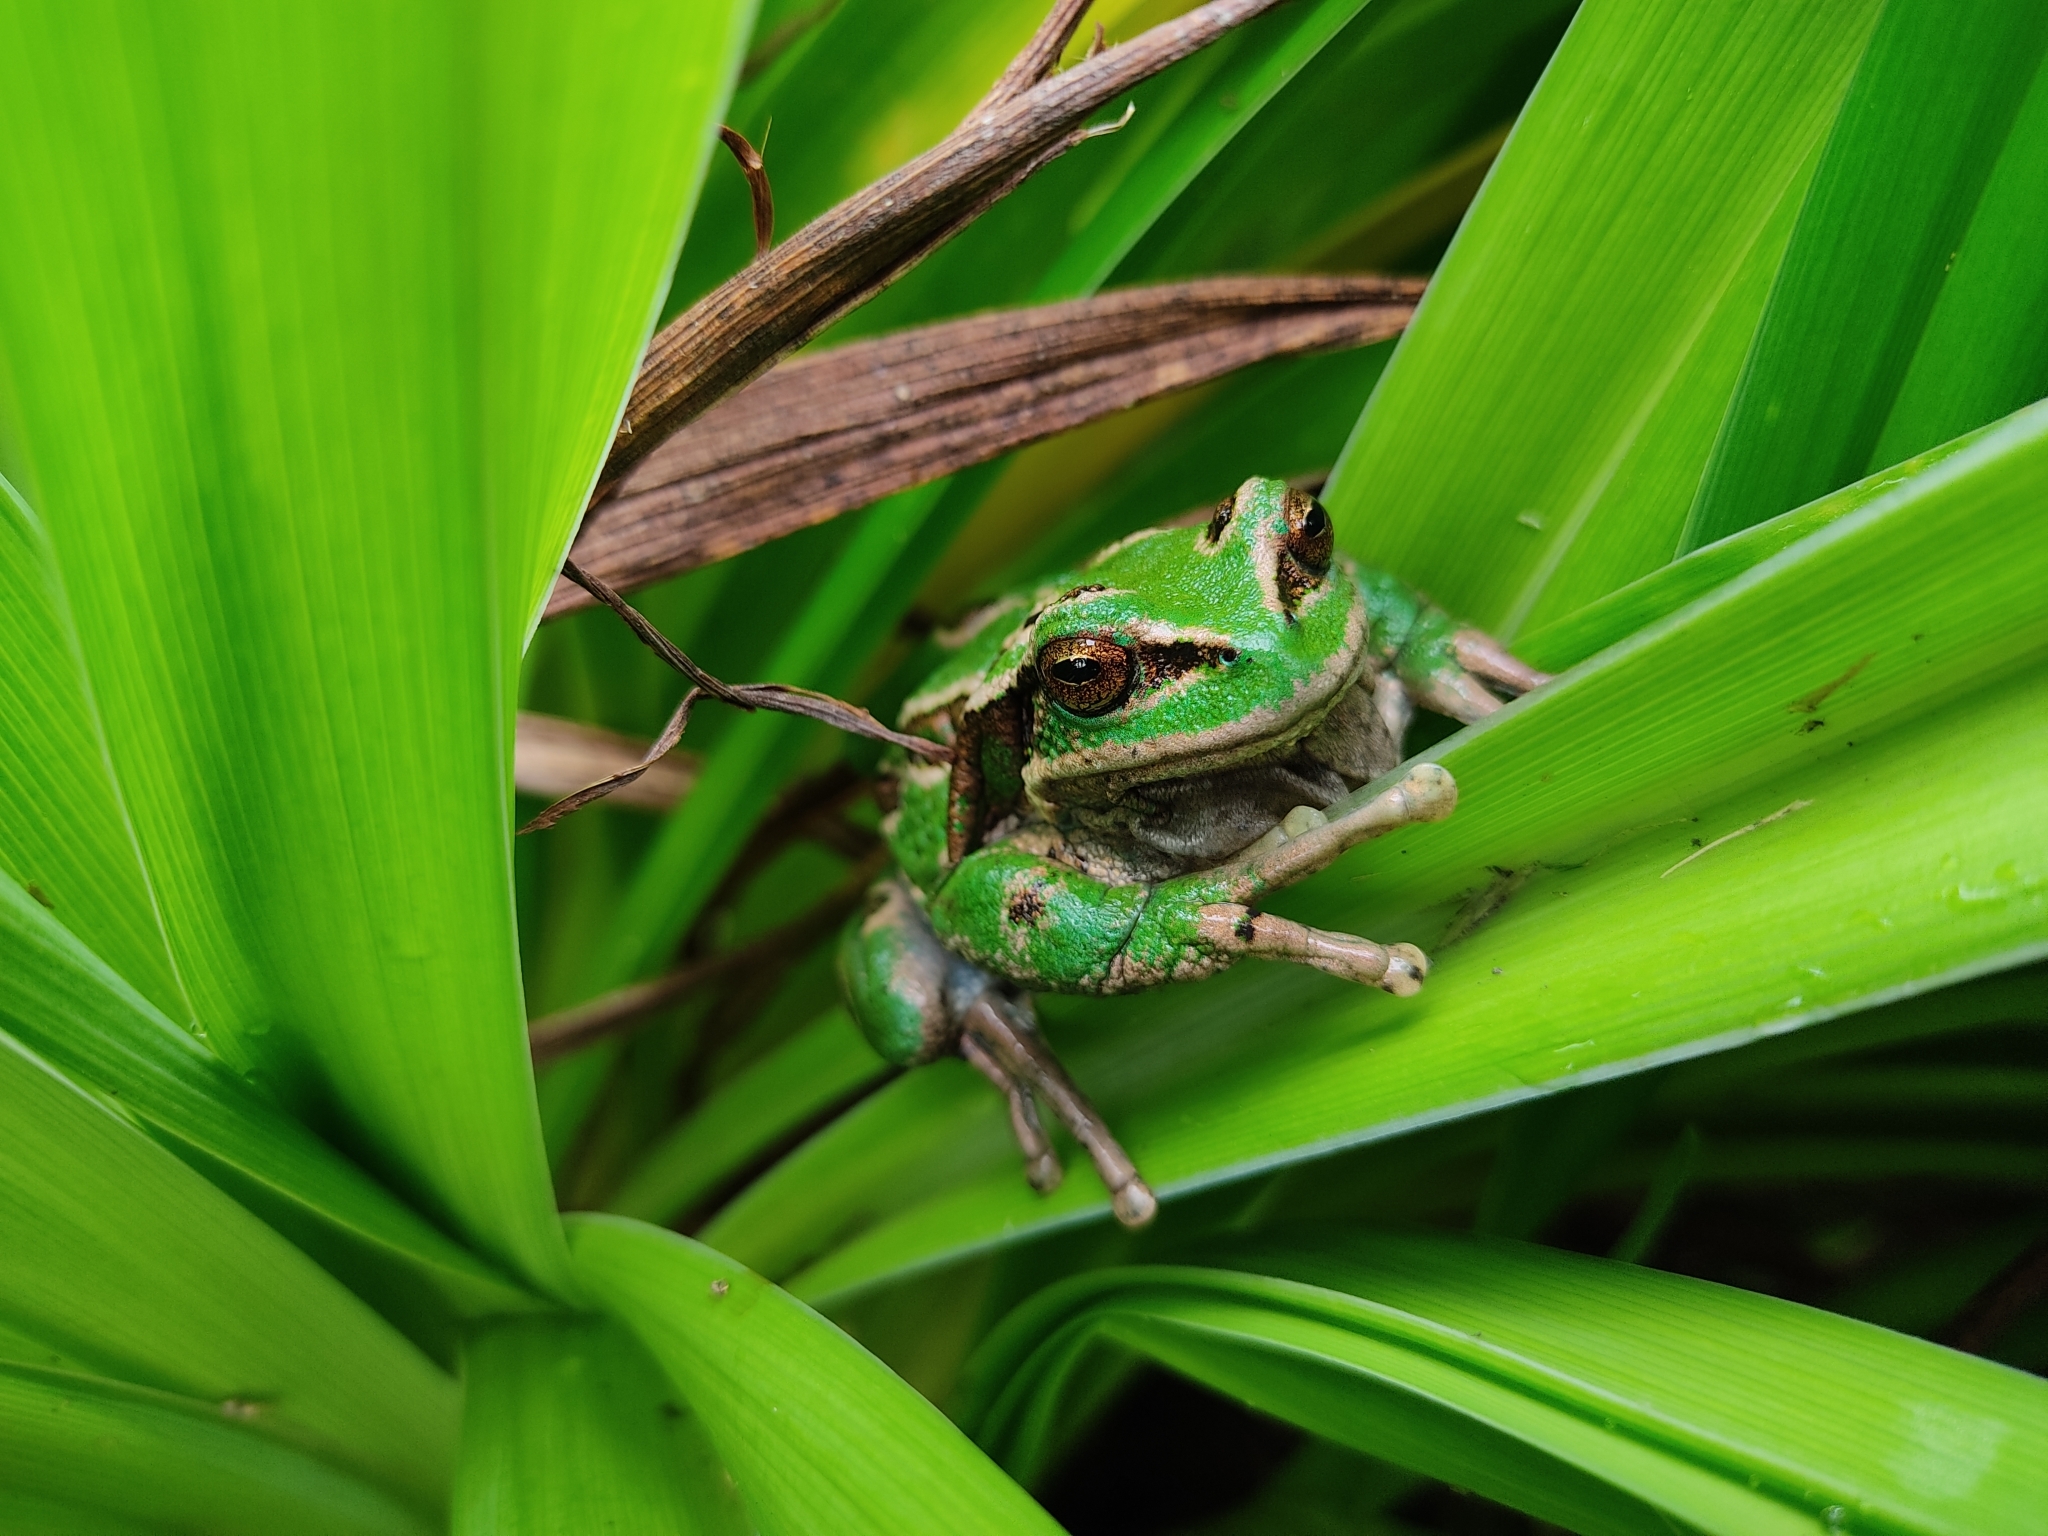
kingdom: Animalia
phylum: Chordata
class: Amphibia
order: Anura
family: Hemiphractidae
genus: Gastrotheca
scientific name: Gastrotheca riobambae
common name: Riobamba marsupial frog
